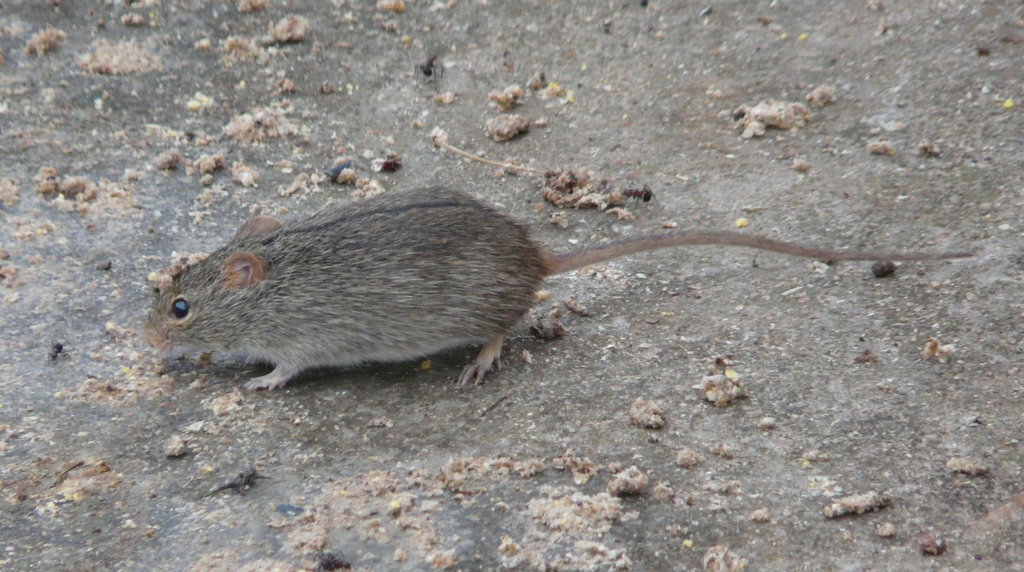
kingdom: Animalia
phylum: Chordata
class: Mammalia
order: Rodentia
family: Muridae
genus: Lemniscomys
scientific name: Lemniscomys rosalia
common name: Single-striped lemniscomys
